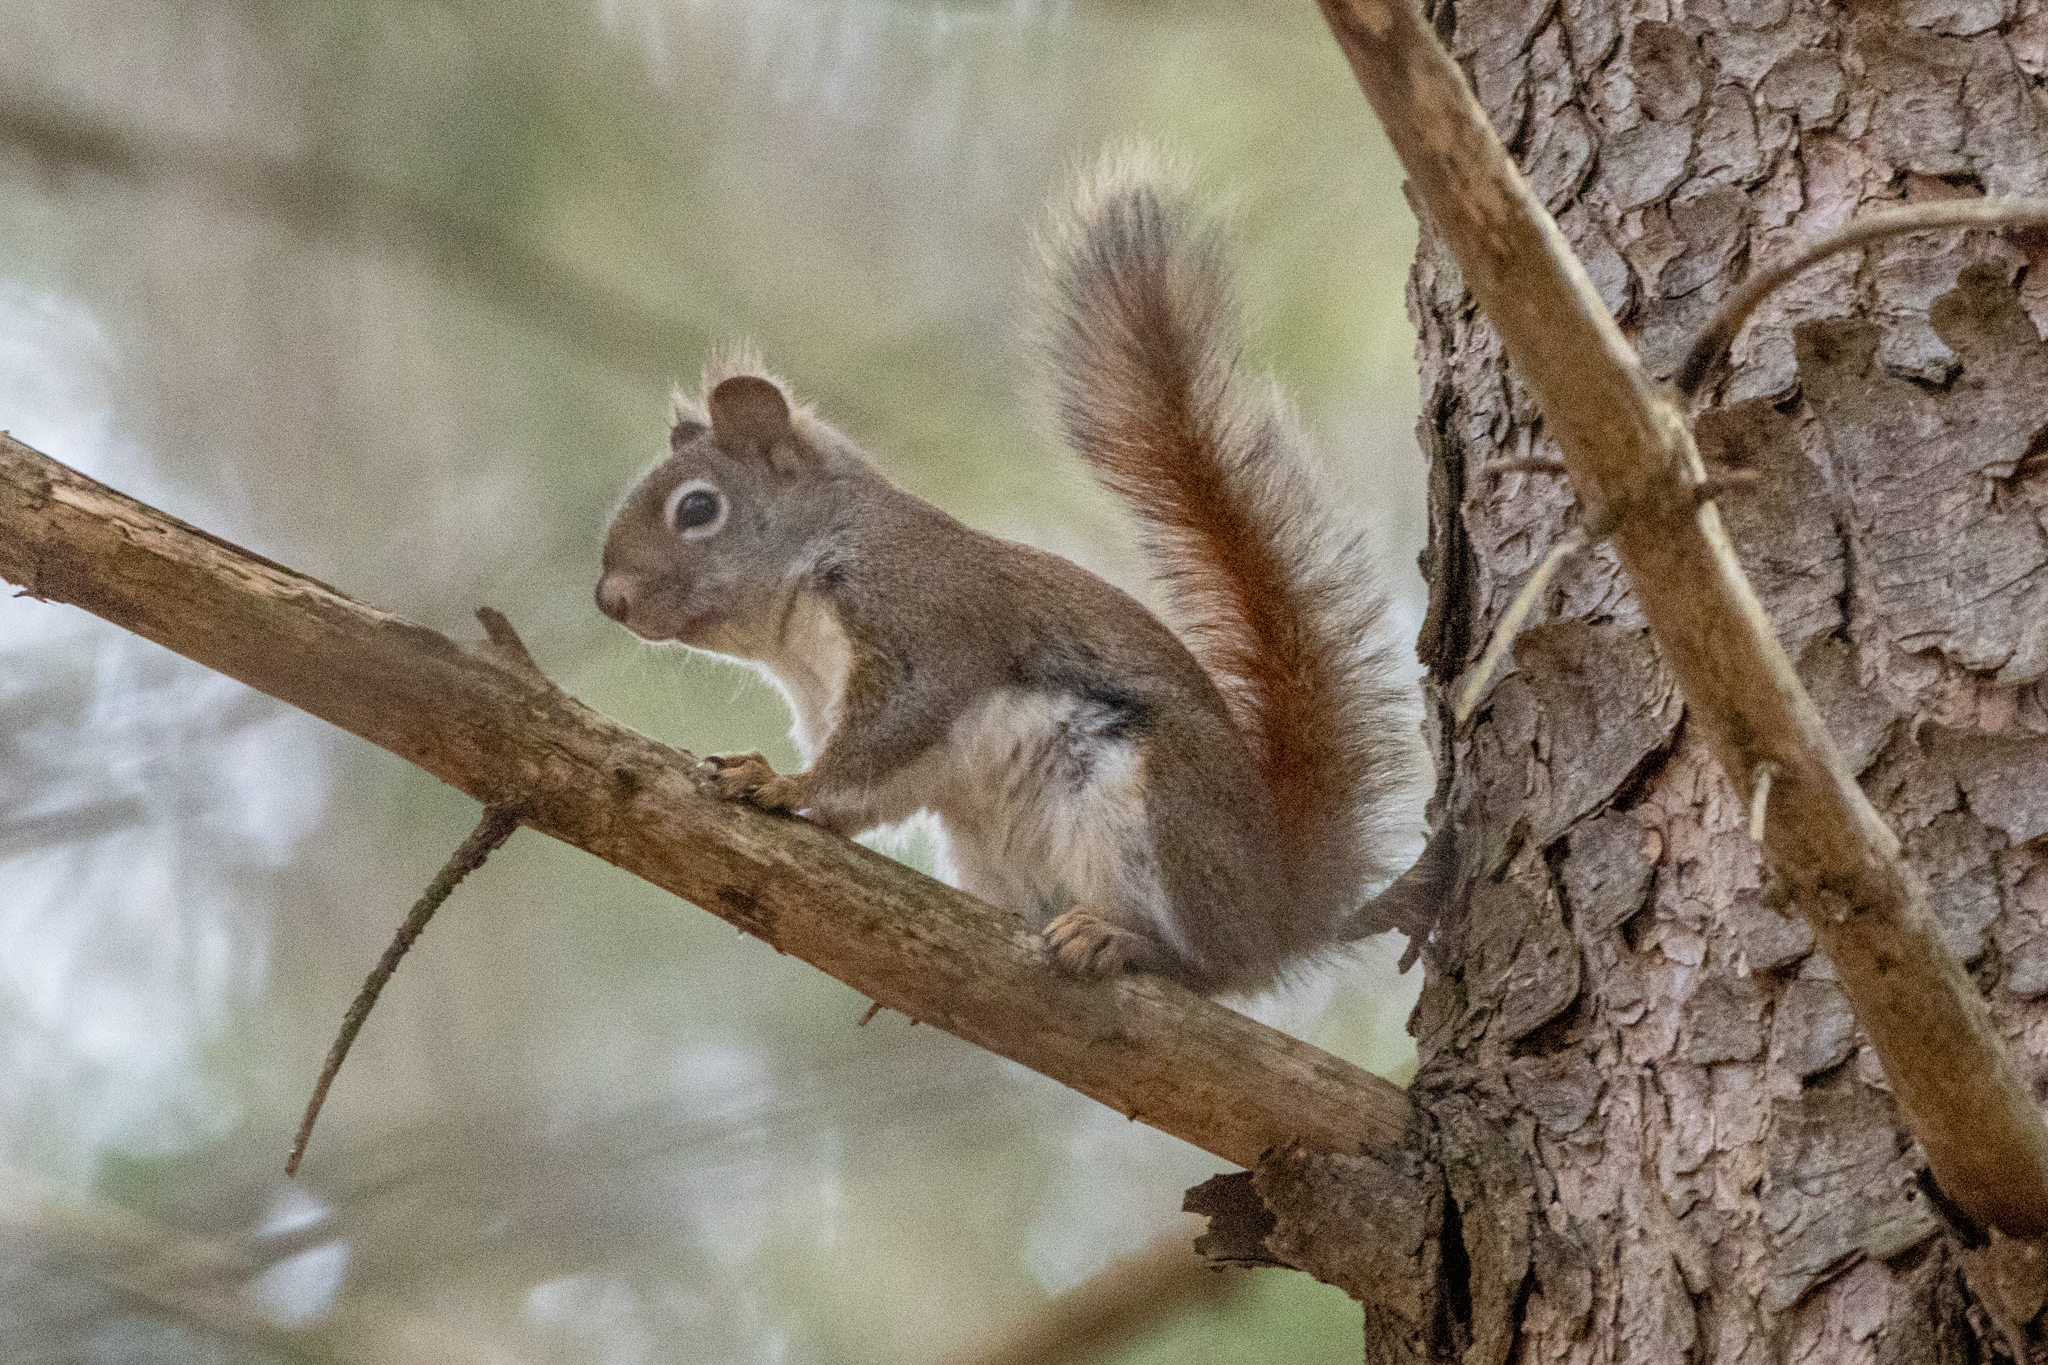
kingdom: Animalia
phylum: Chordata
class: Mammalia
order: Rodentia
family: Sciuridae
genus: Tamiasciurus
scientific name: Tamiasciurus hudsonicus
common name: Red squirrel
